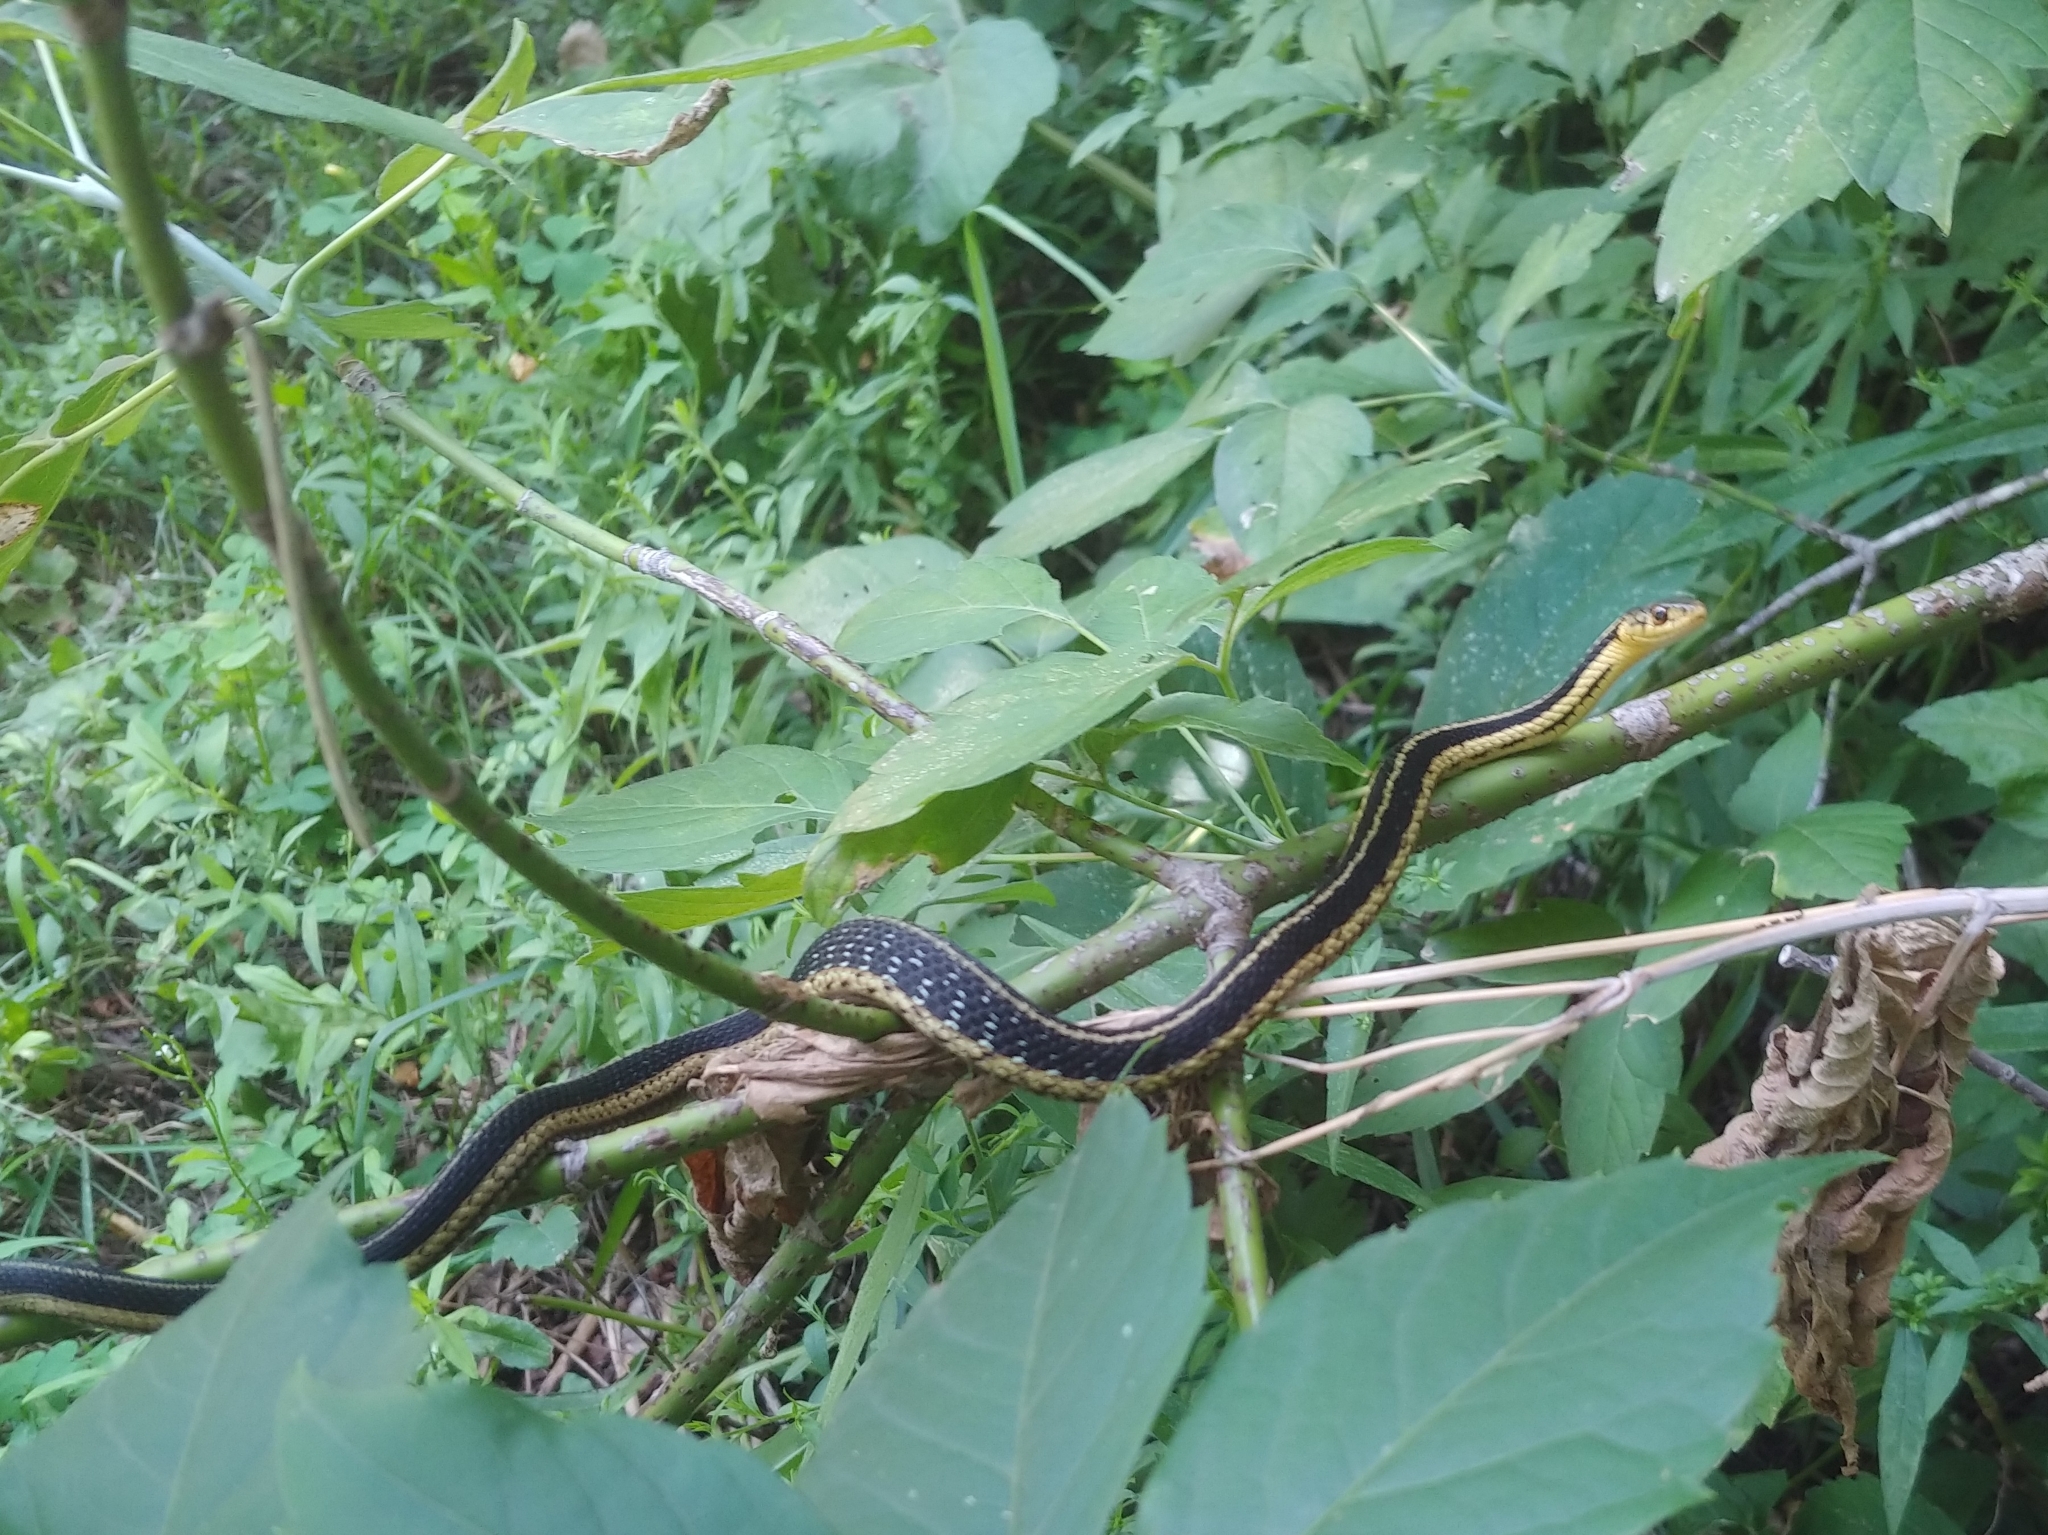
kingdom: Animalia
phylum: Chordata
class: Squamata
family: Colubridae
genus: Thamnophis
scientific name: Thamnophis sirtalis
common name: Common garter snake
